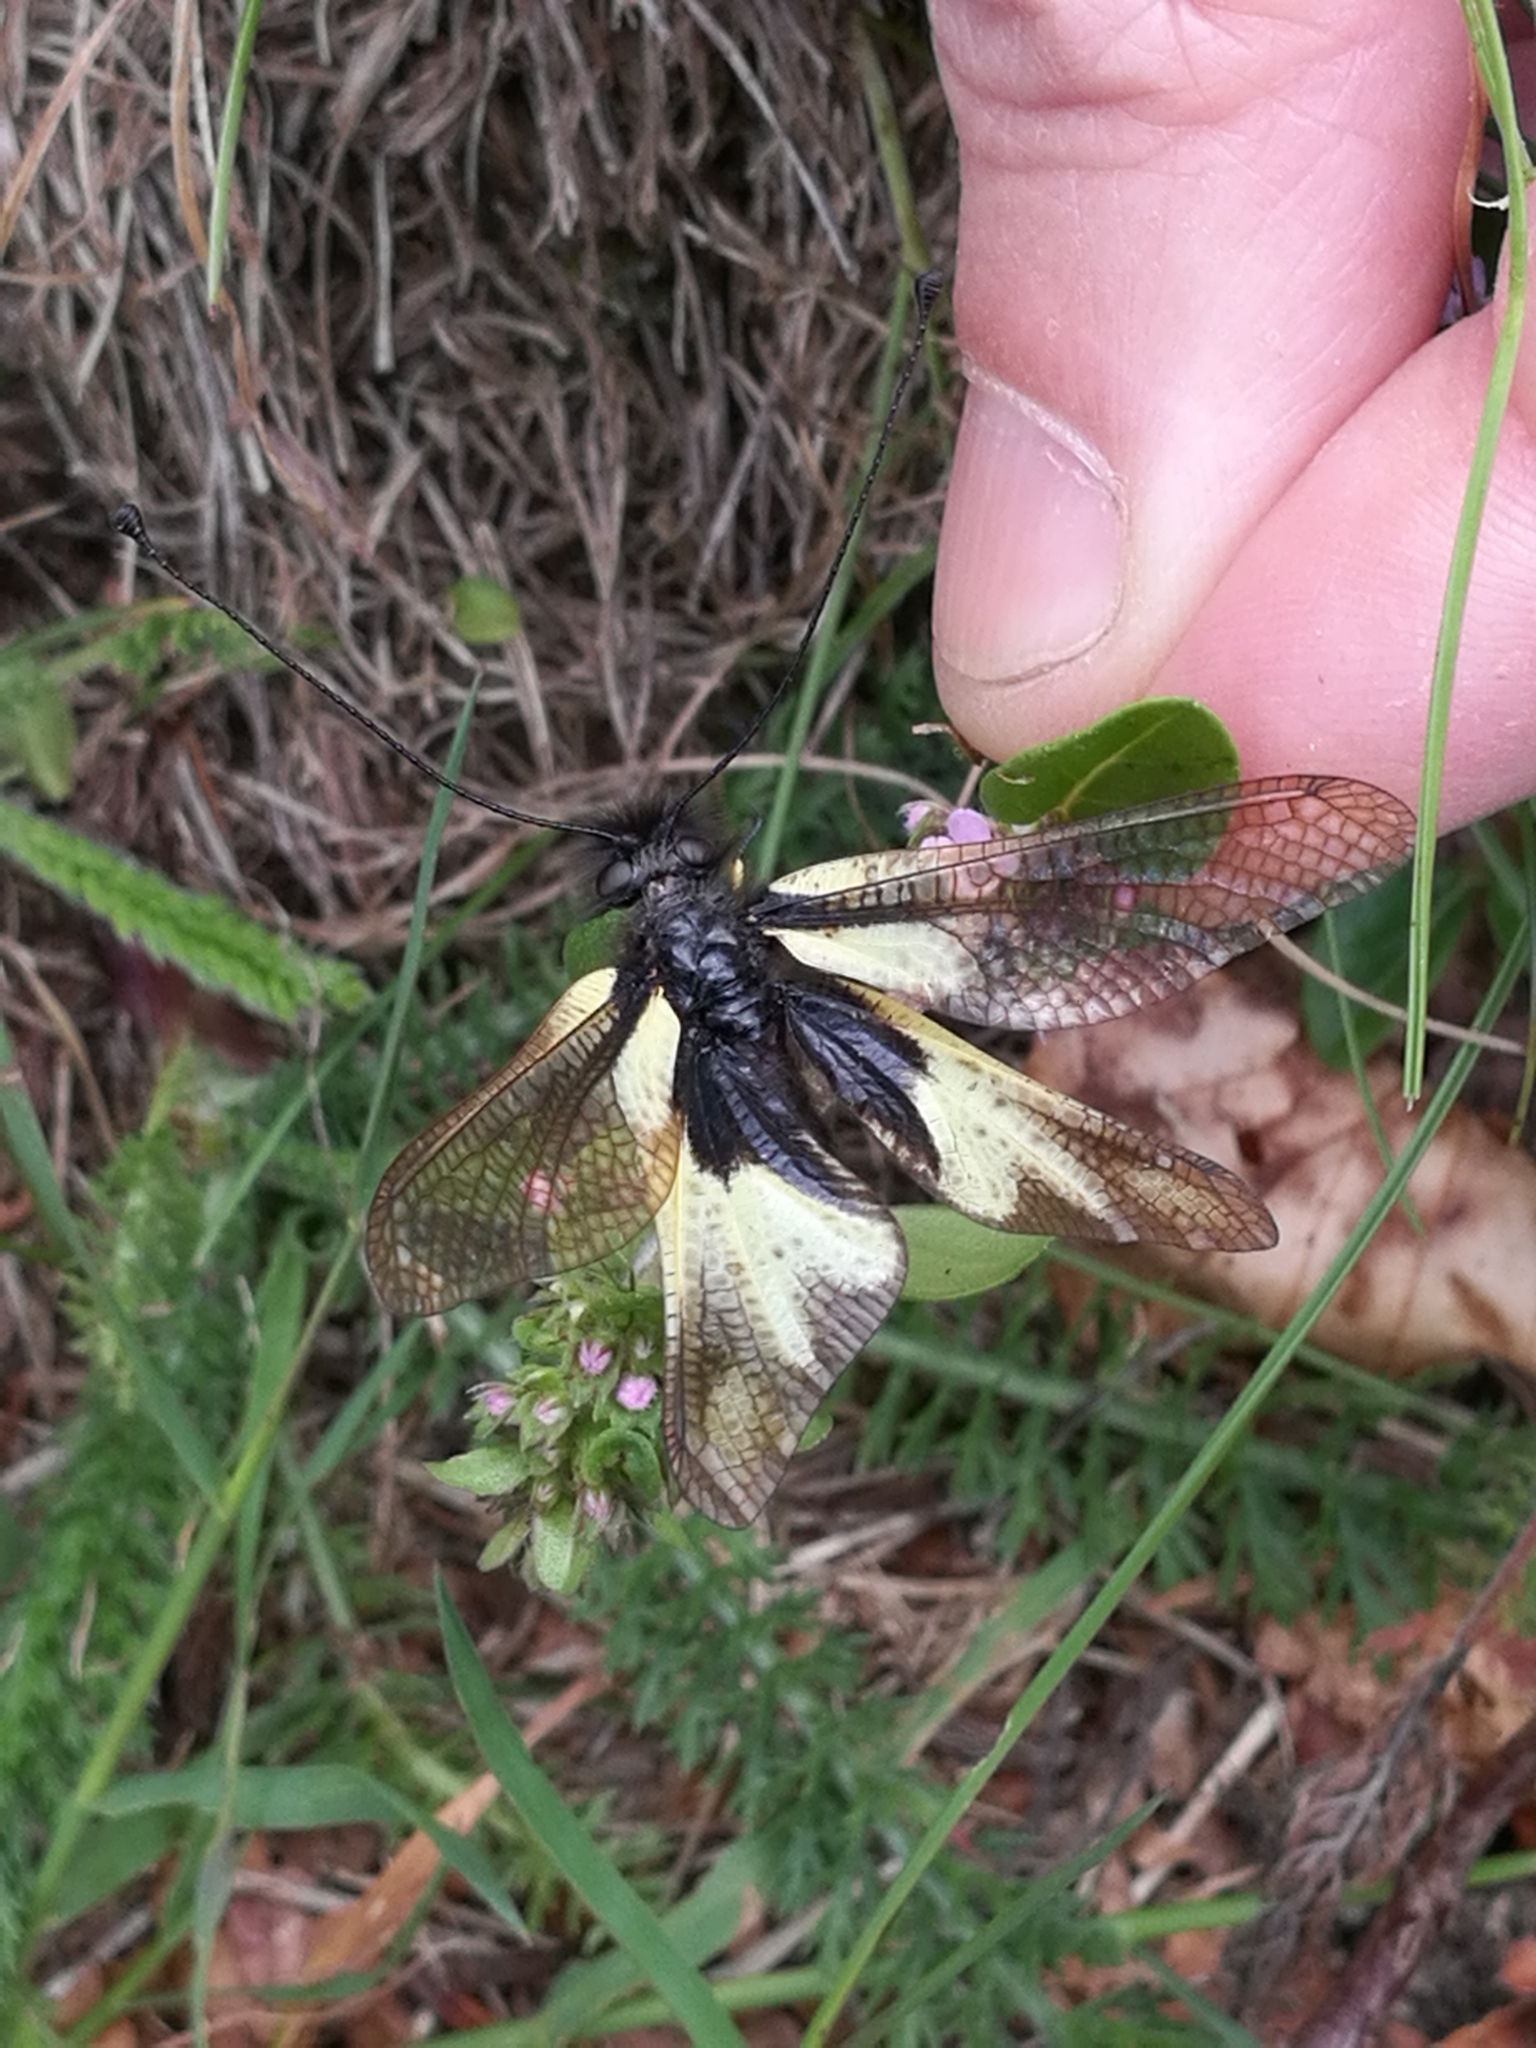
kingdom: Animalia
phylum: Arthropoda
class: Insecta
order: Neuroptera
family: Ascalaphidae
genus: Libelloides
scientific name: Libelloides coccajus
